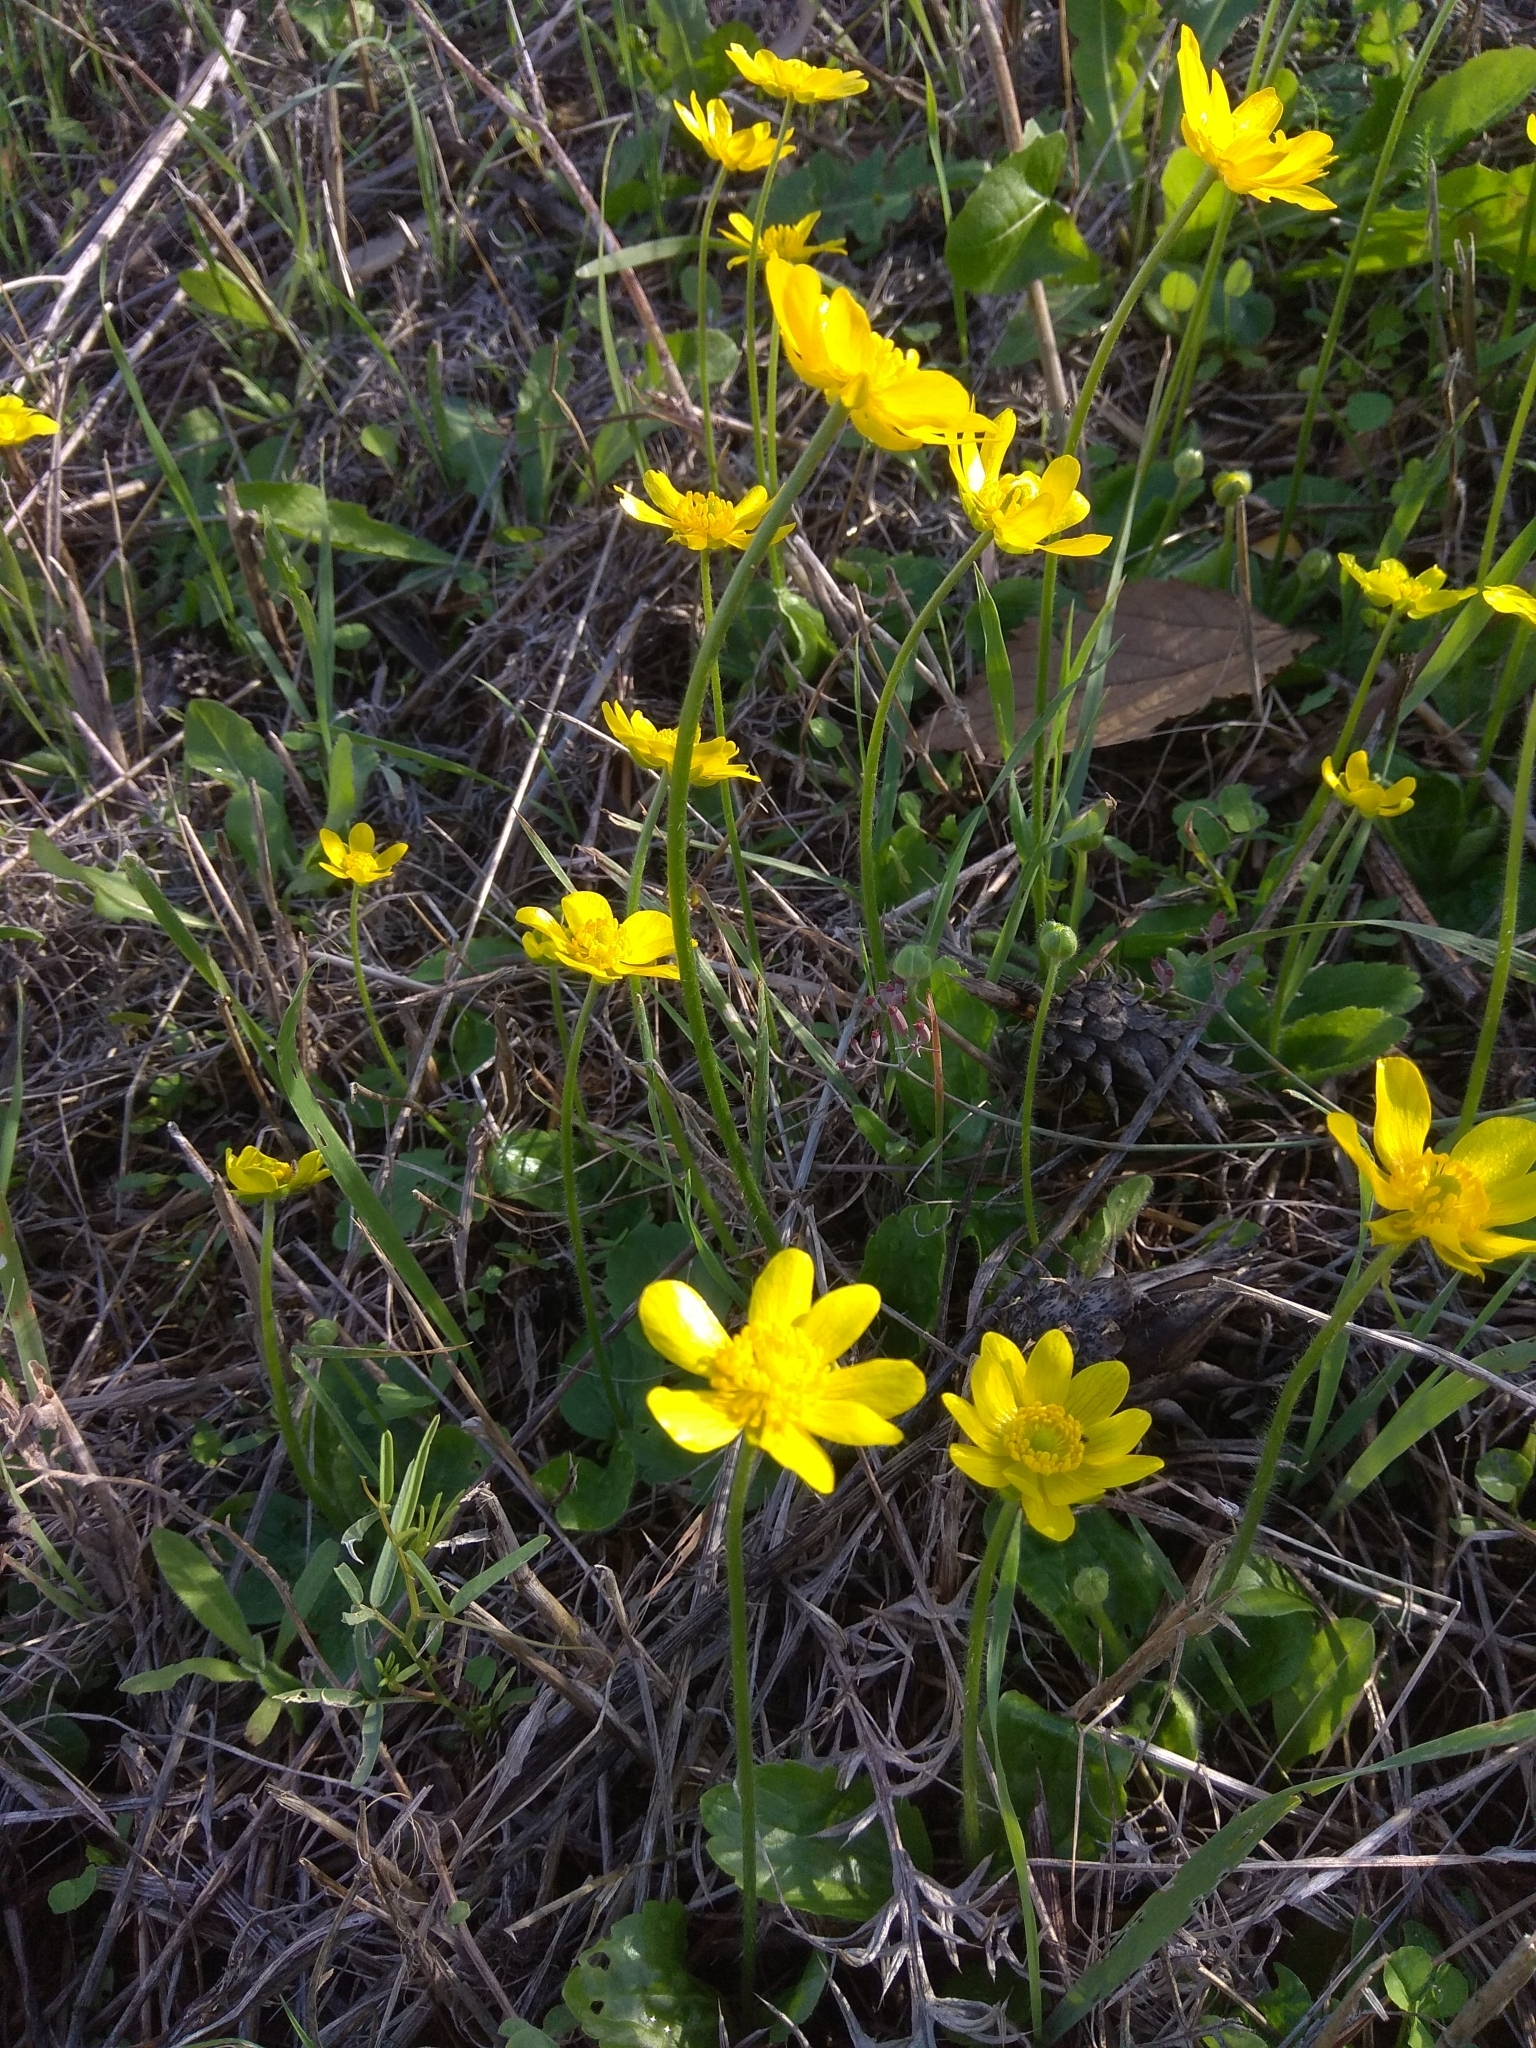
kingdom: Plantae
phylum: Tracheophyta
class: Magnoliopsida
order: Ranunculales
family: Ranunculaceae
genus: Ranunculus
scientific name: Ranunculus bullatus
